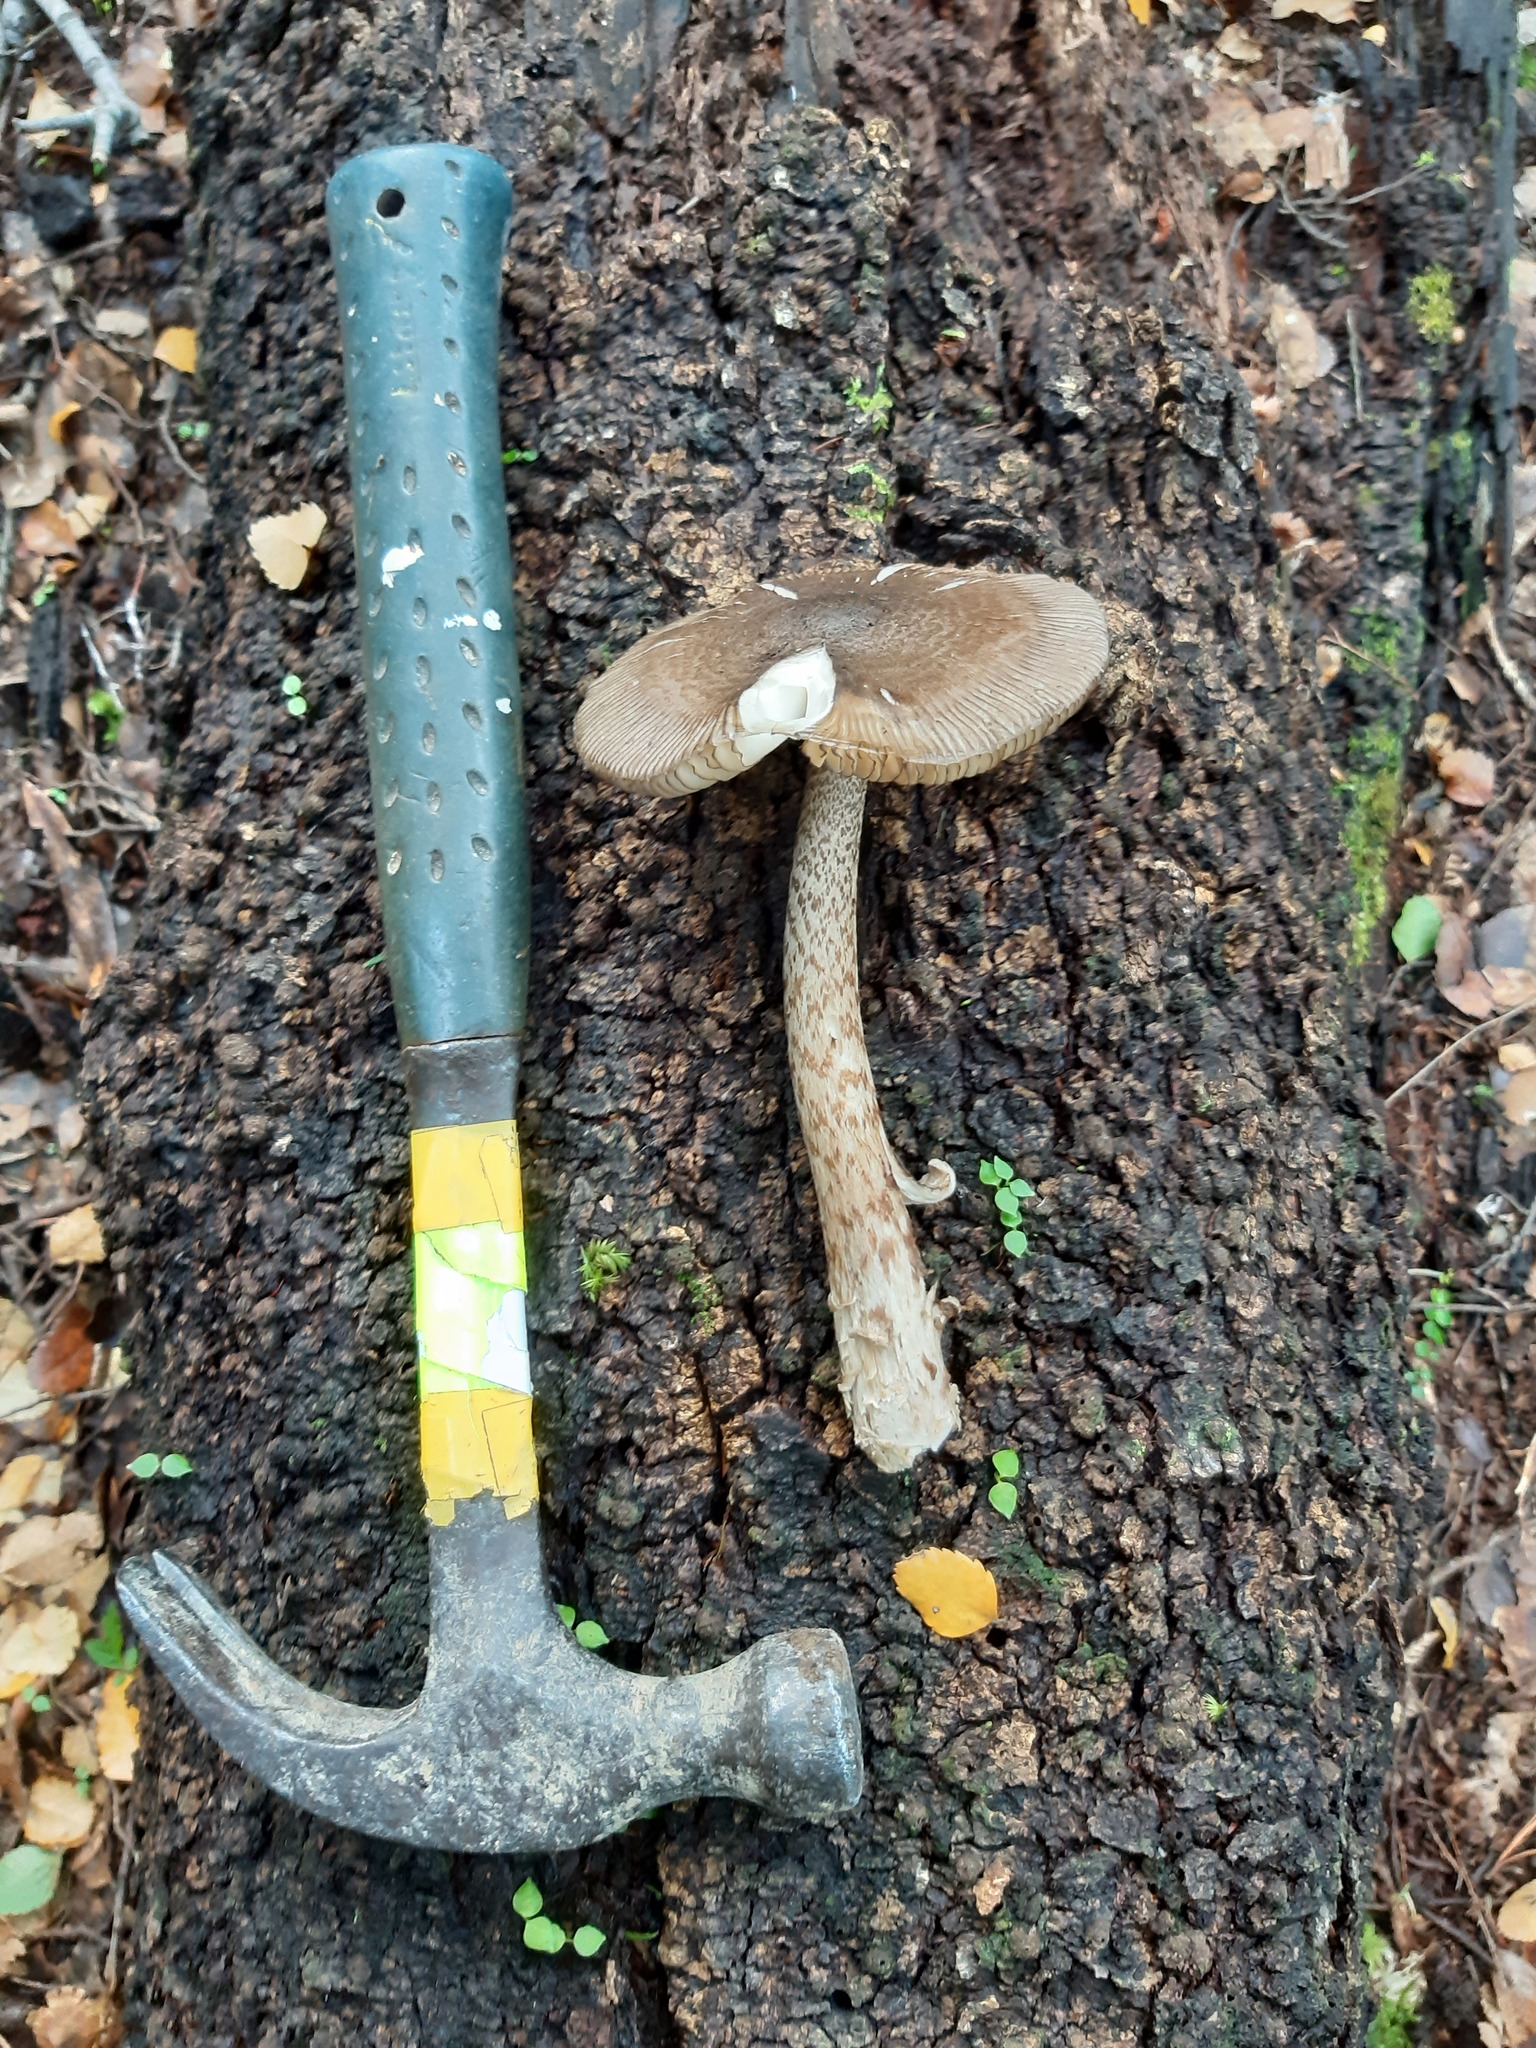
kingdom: Fungi
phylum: Basidiomycota
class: Agaricomycetes
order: Agaricales
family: Amanitaceae
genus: Amanita
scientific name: Amanita pekeoides
